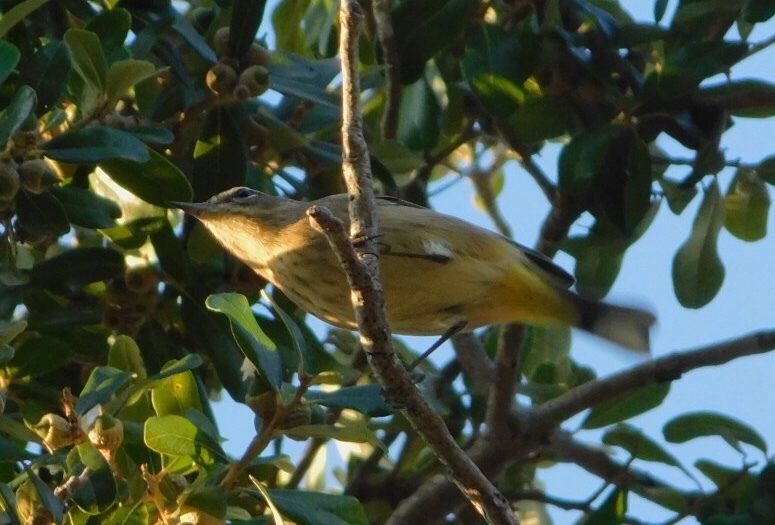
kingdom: Animalia
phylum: Chordata
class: Aves
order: Passeriformes
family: Parulidae
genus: Setophaga
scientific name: Setophaga palmarum
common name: Palm warbler
